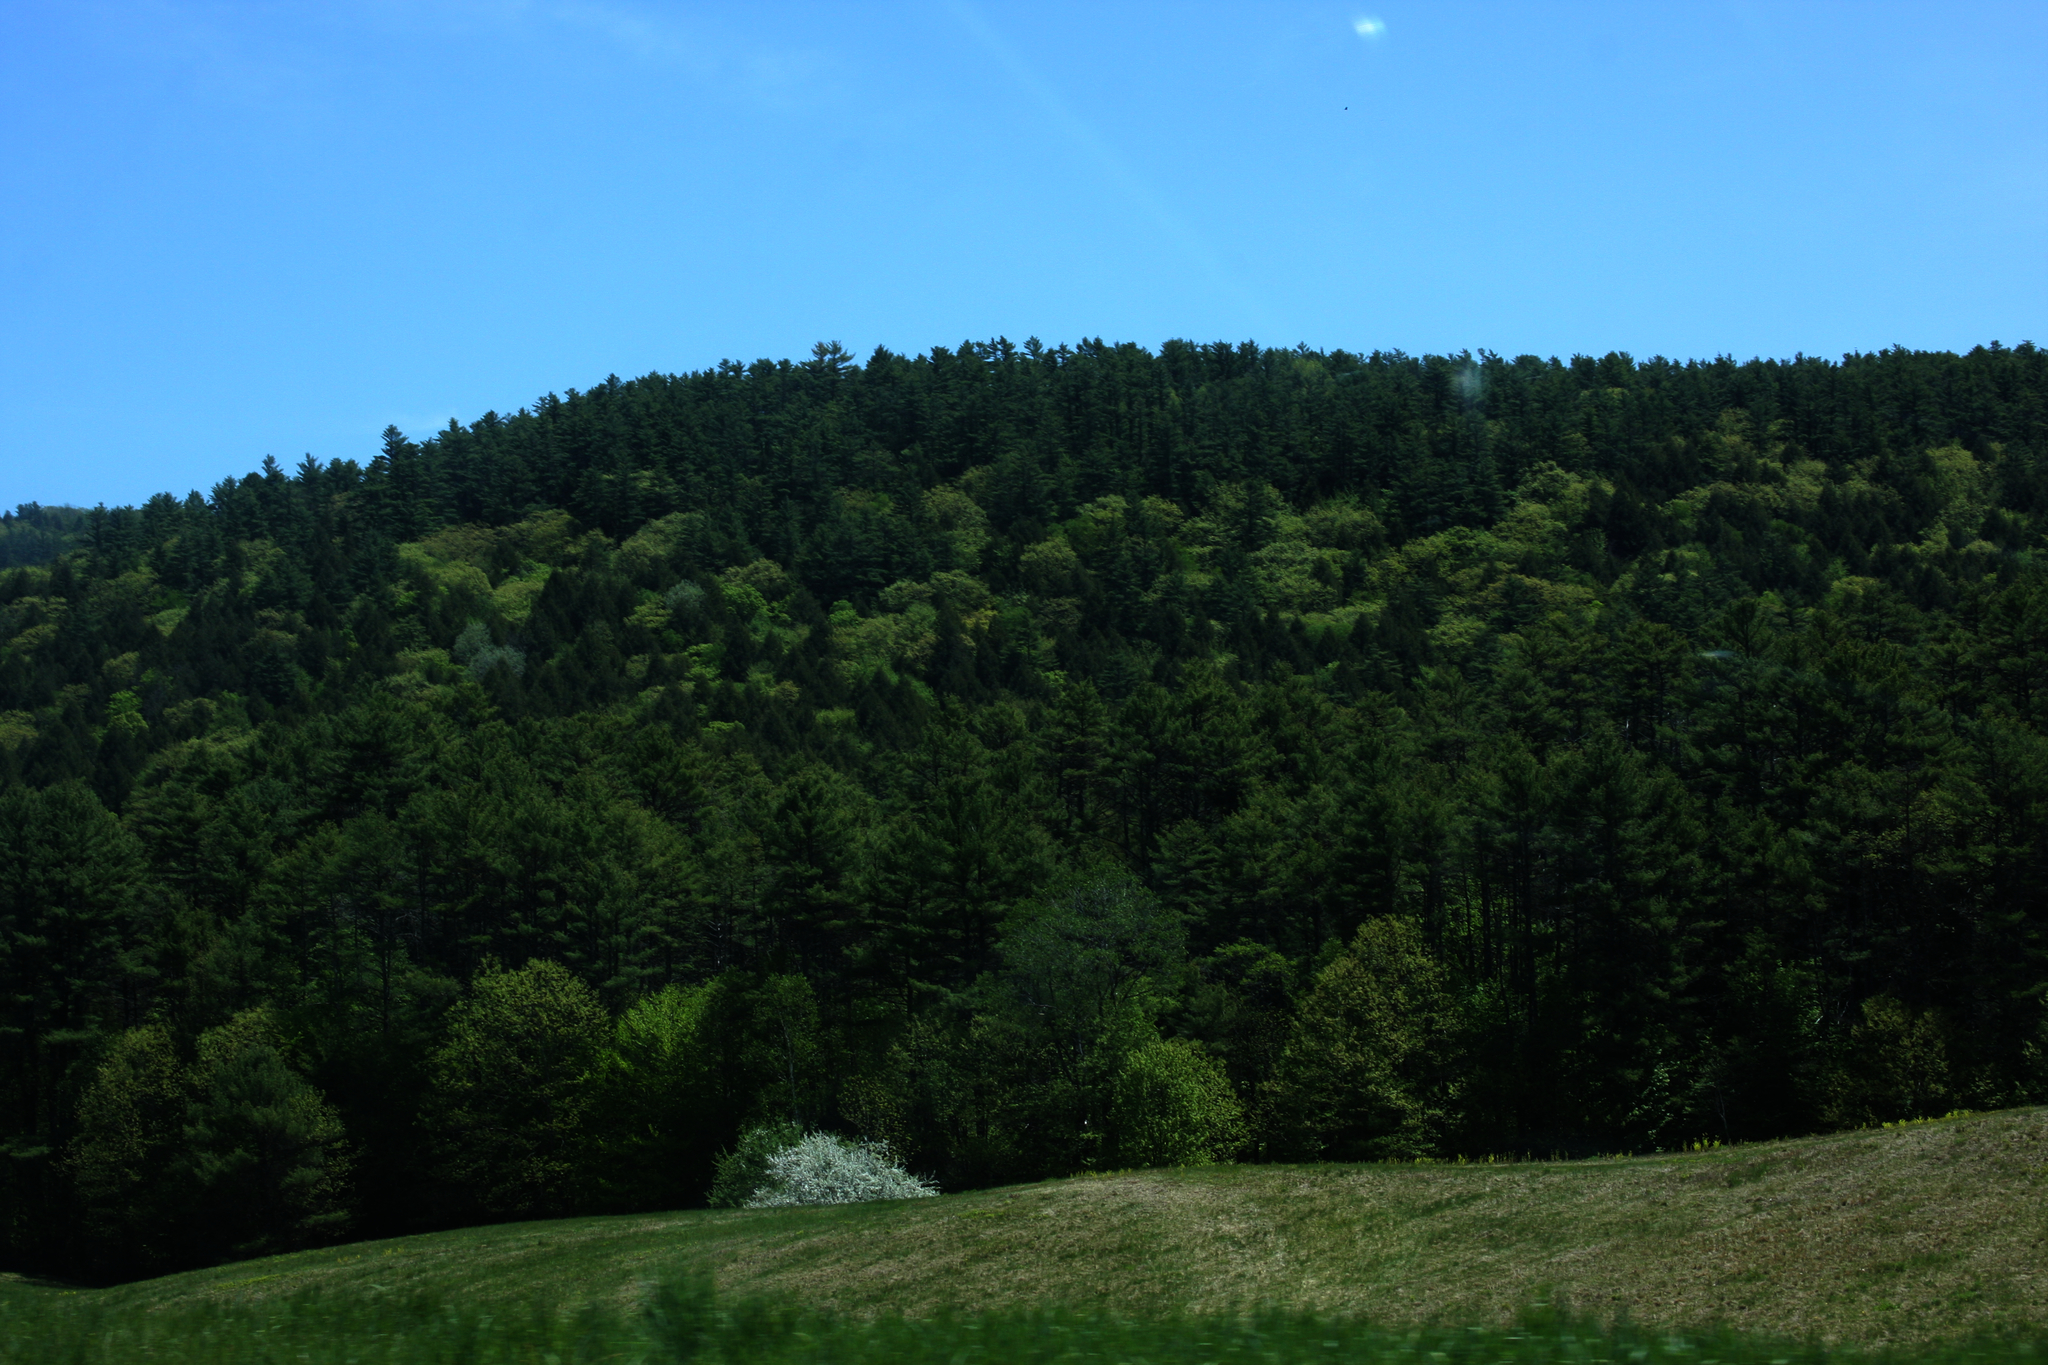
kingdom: Plantae
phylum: Tracheophyta
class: Pinopsida
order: Pinales
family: Pinaceae
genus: Pinus
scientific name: Pinus strobus
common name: Weymouth pine
